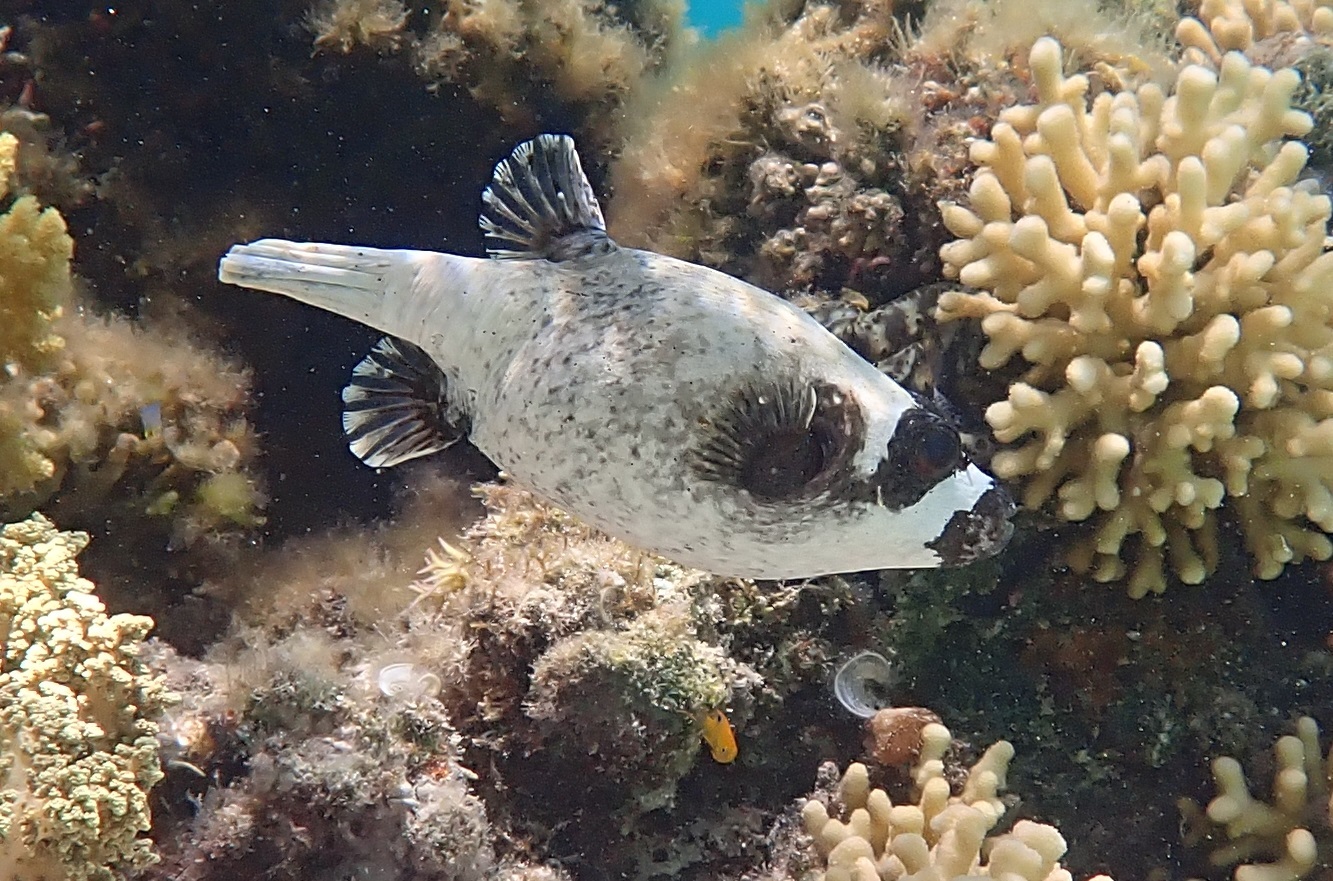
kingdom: Animalia
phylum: Chordata
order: Tetraodontiformes
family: Tetraodontidae
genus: Arothron
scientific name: Arothron diadematus
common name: Masked puffer
